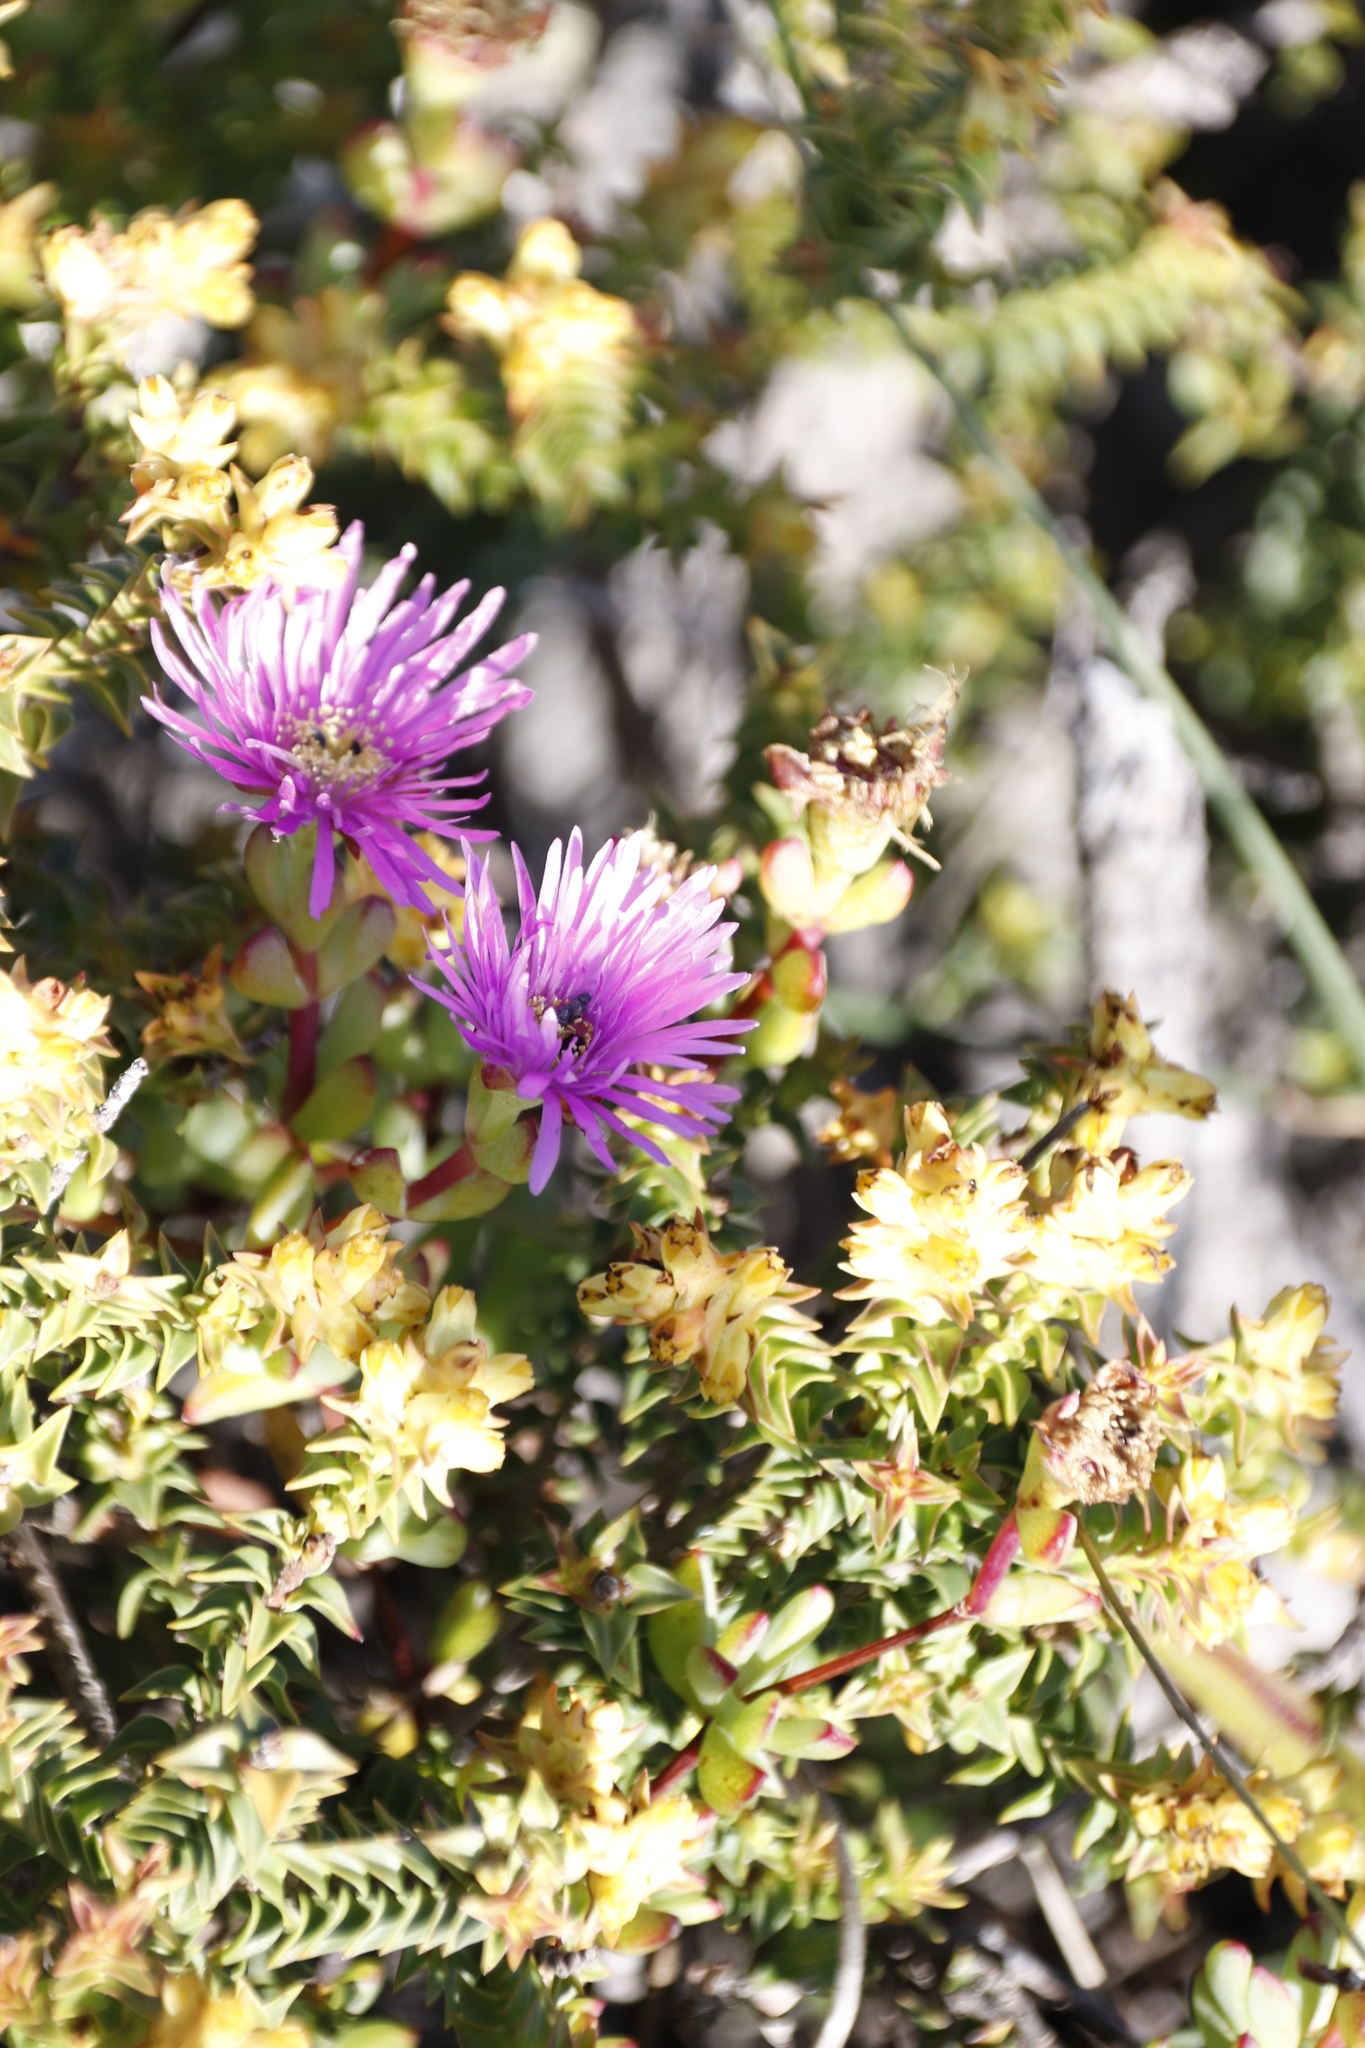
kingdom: Plantae
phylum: Tracheophyta
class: Magnoliopsida
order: Myrtales
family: Penaeaceae
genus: Penaea
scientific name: Penaea mucronata
